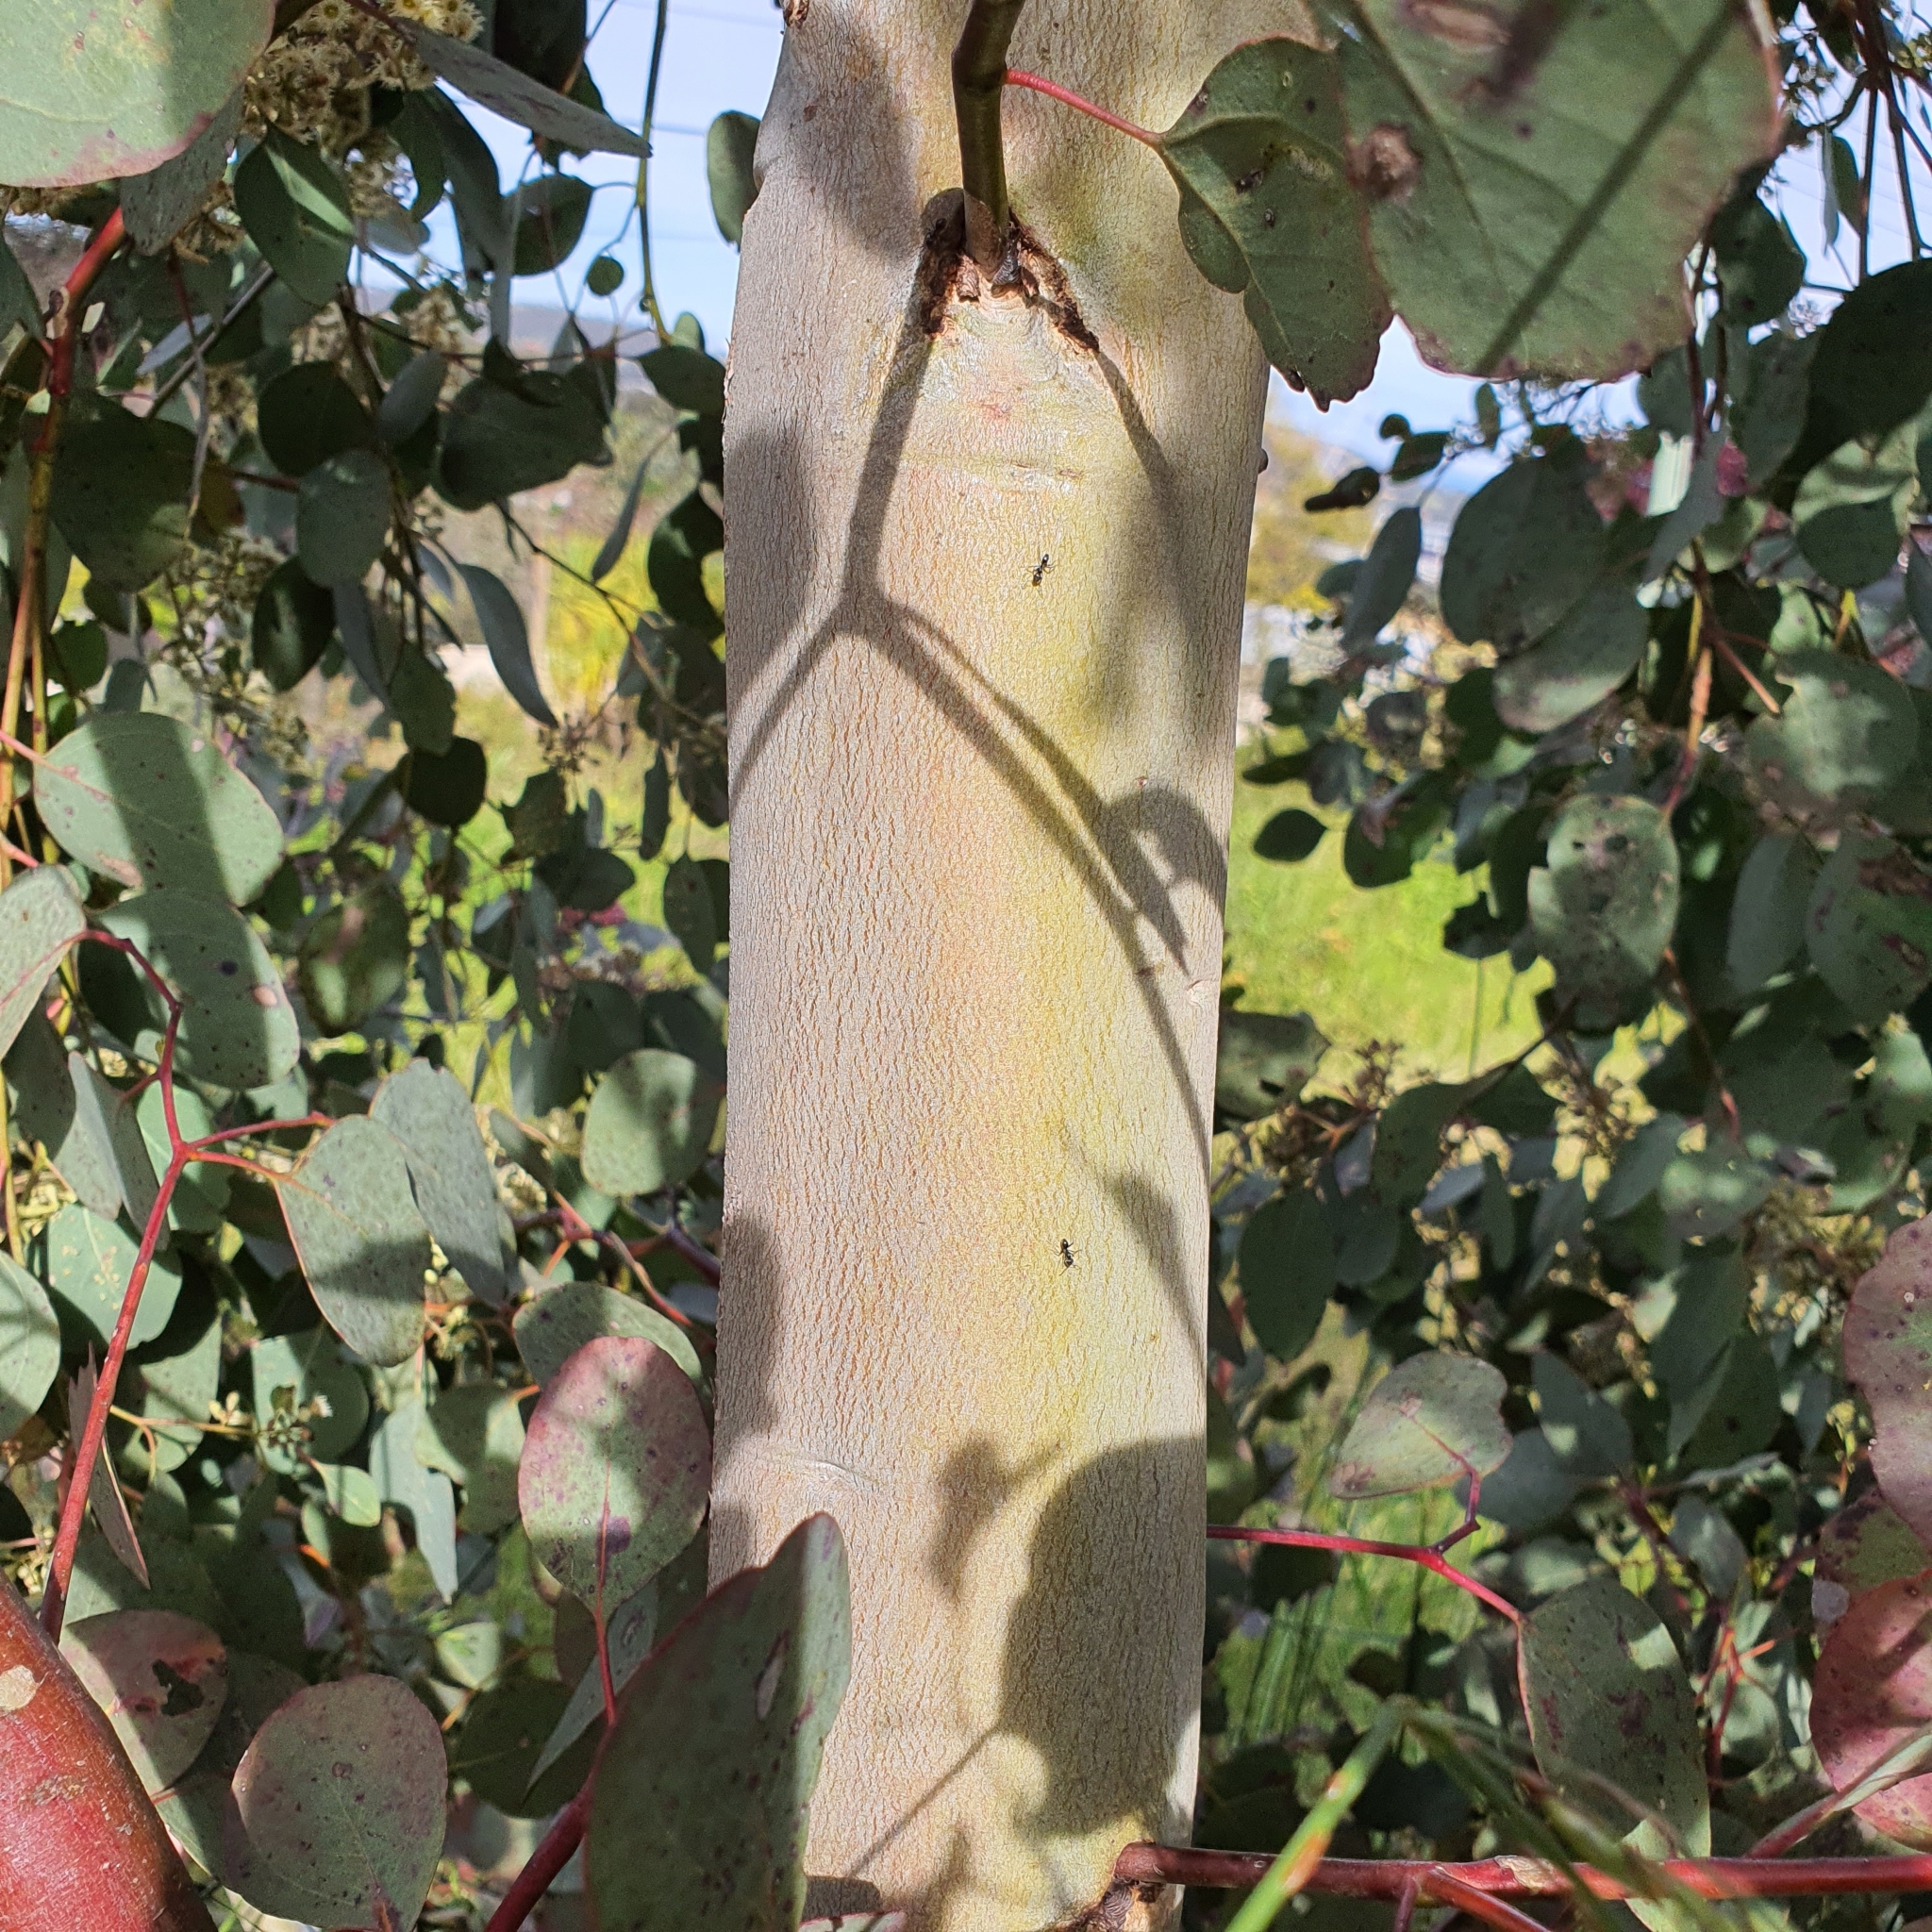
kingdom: Plantae
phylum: Tracheophyta
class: Magnoliopsida
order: Myrtales
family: Myrtaceae
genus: Eucalyptus
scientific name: Eucalyptus polyanthemos
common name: Red-box
